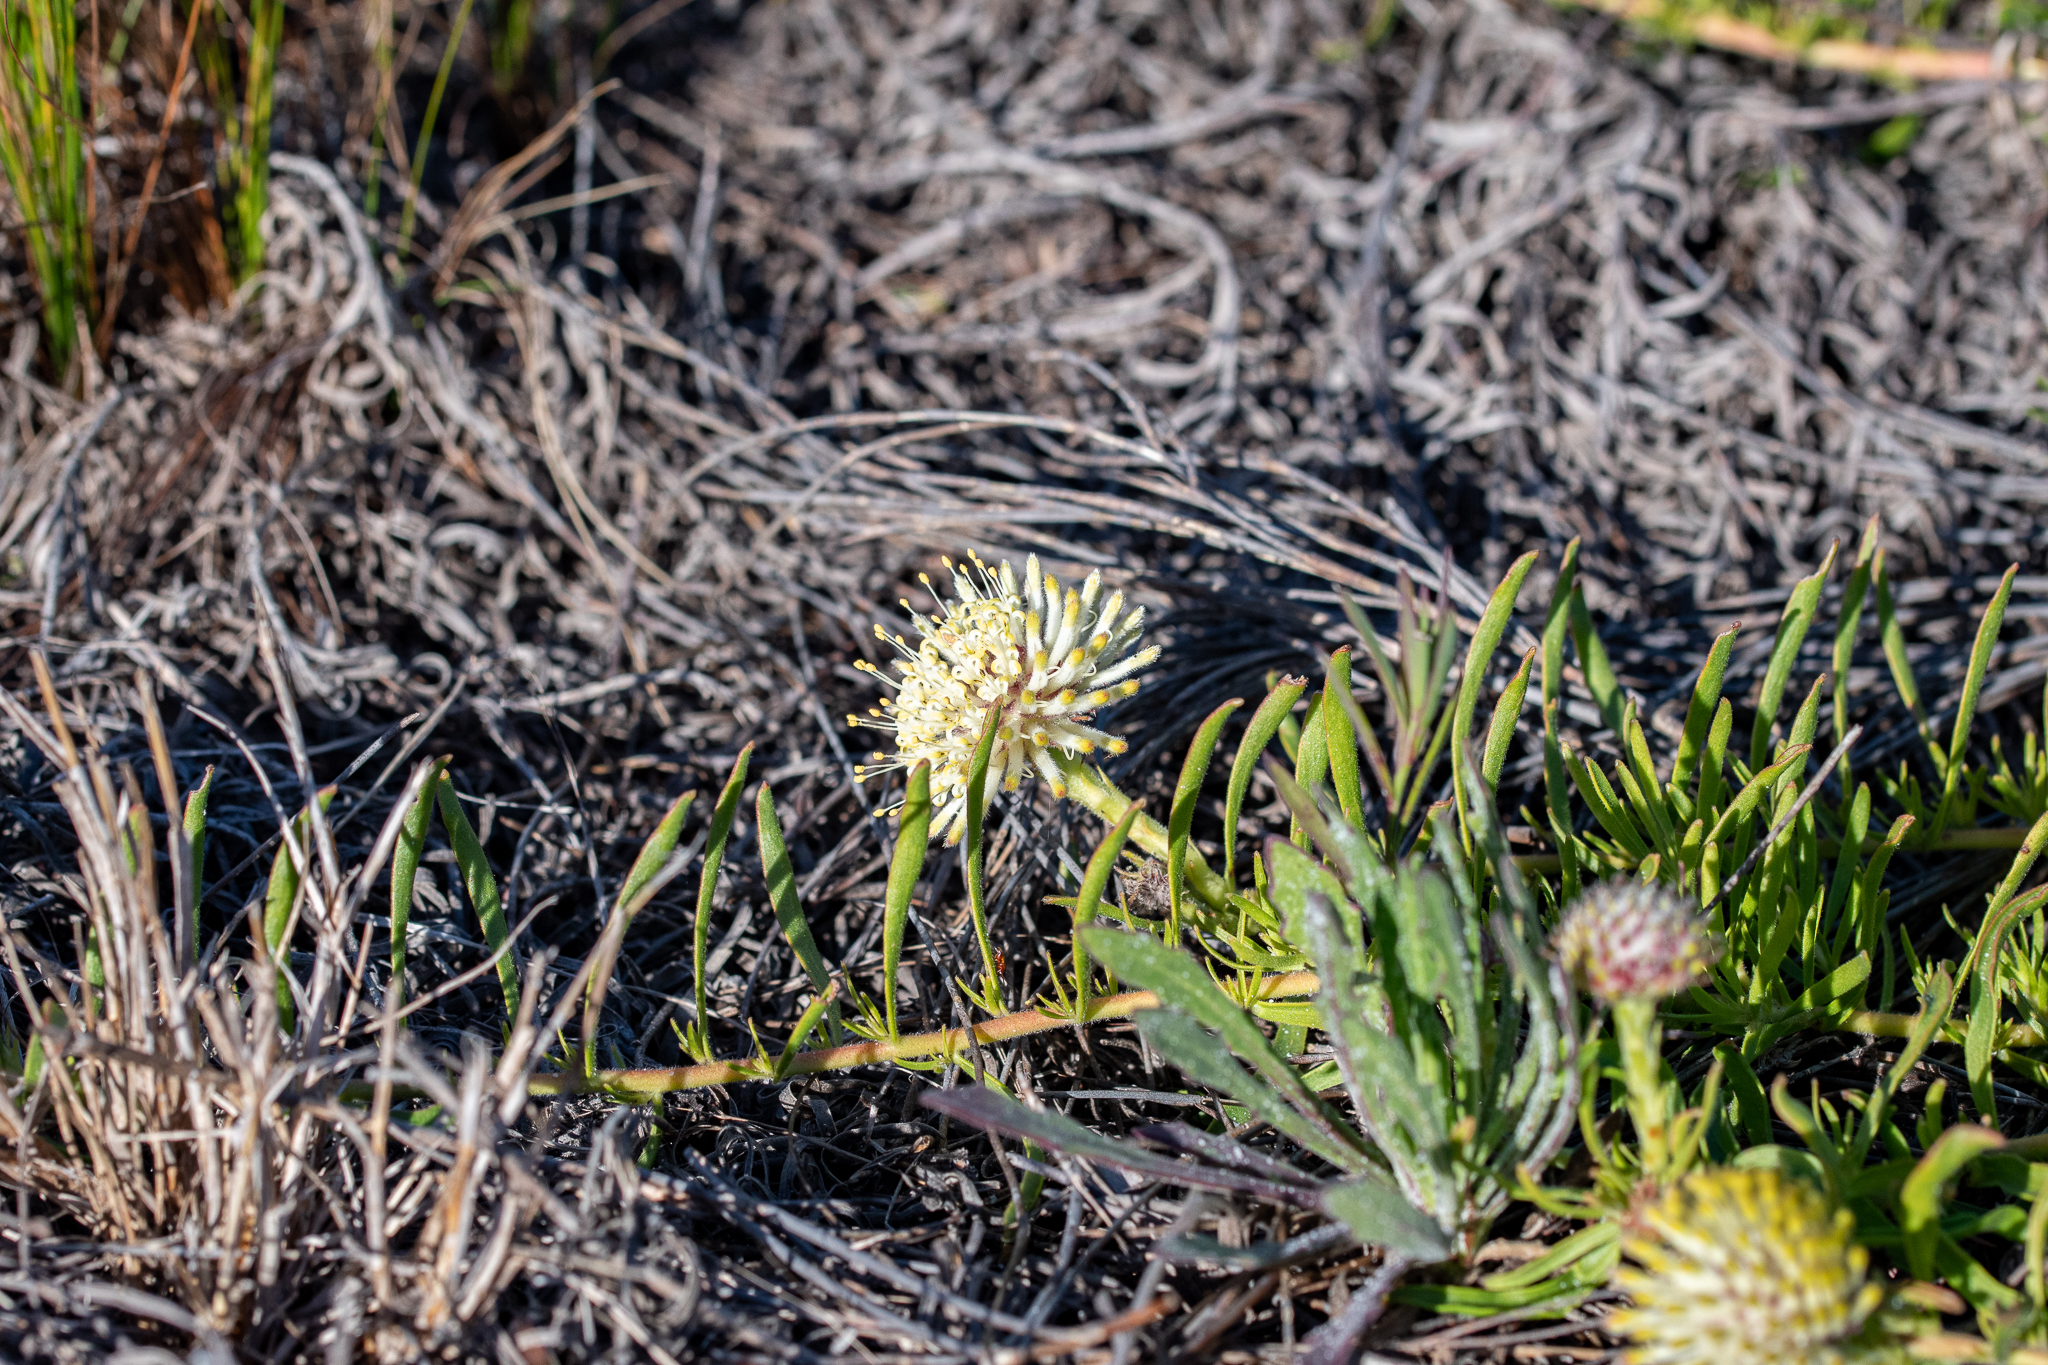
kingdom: Plantae
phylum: Tracheophyta
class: Magnoliopsida
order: Proteales
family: Proteaceae
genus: Leucospermum
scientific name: Leucospermum pedunculatum
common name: White-trailing pincushion
